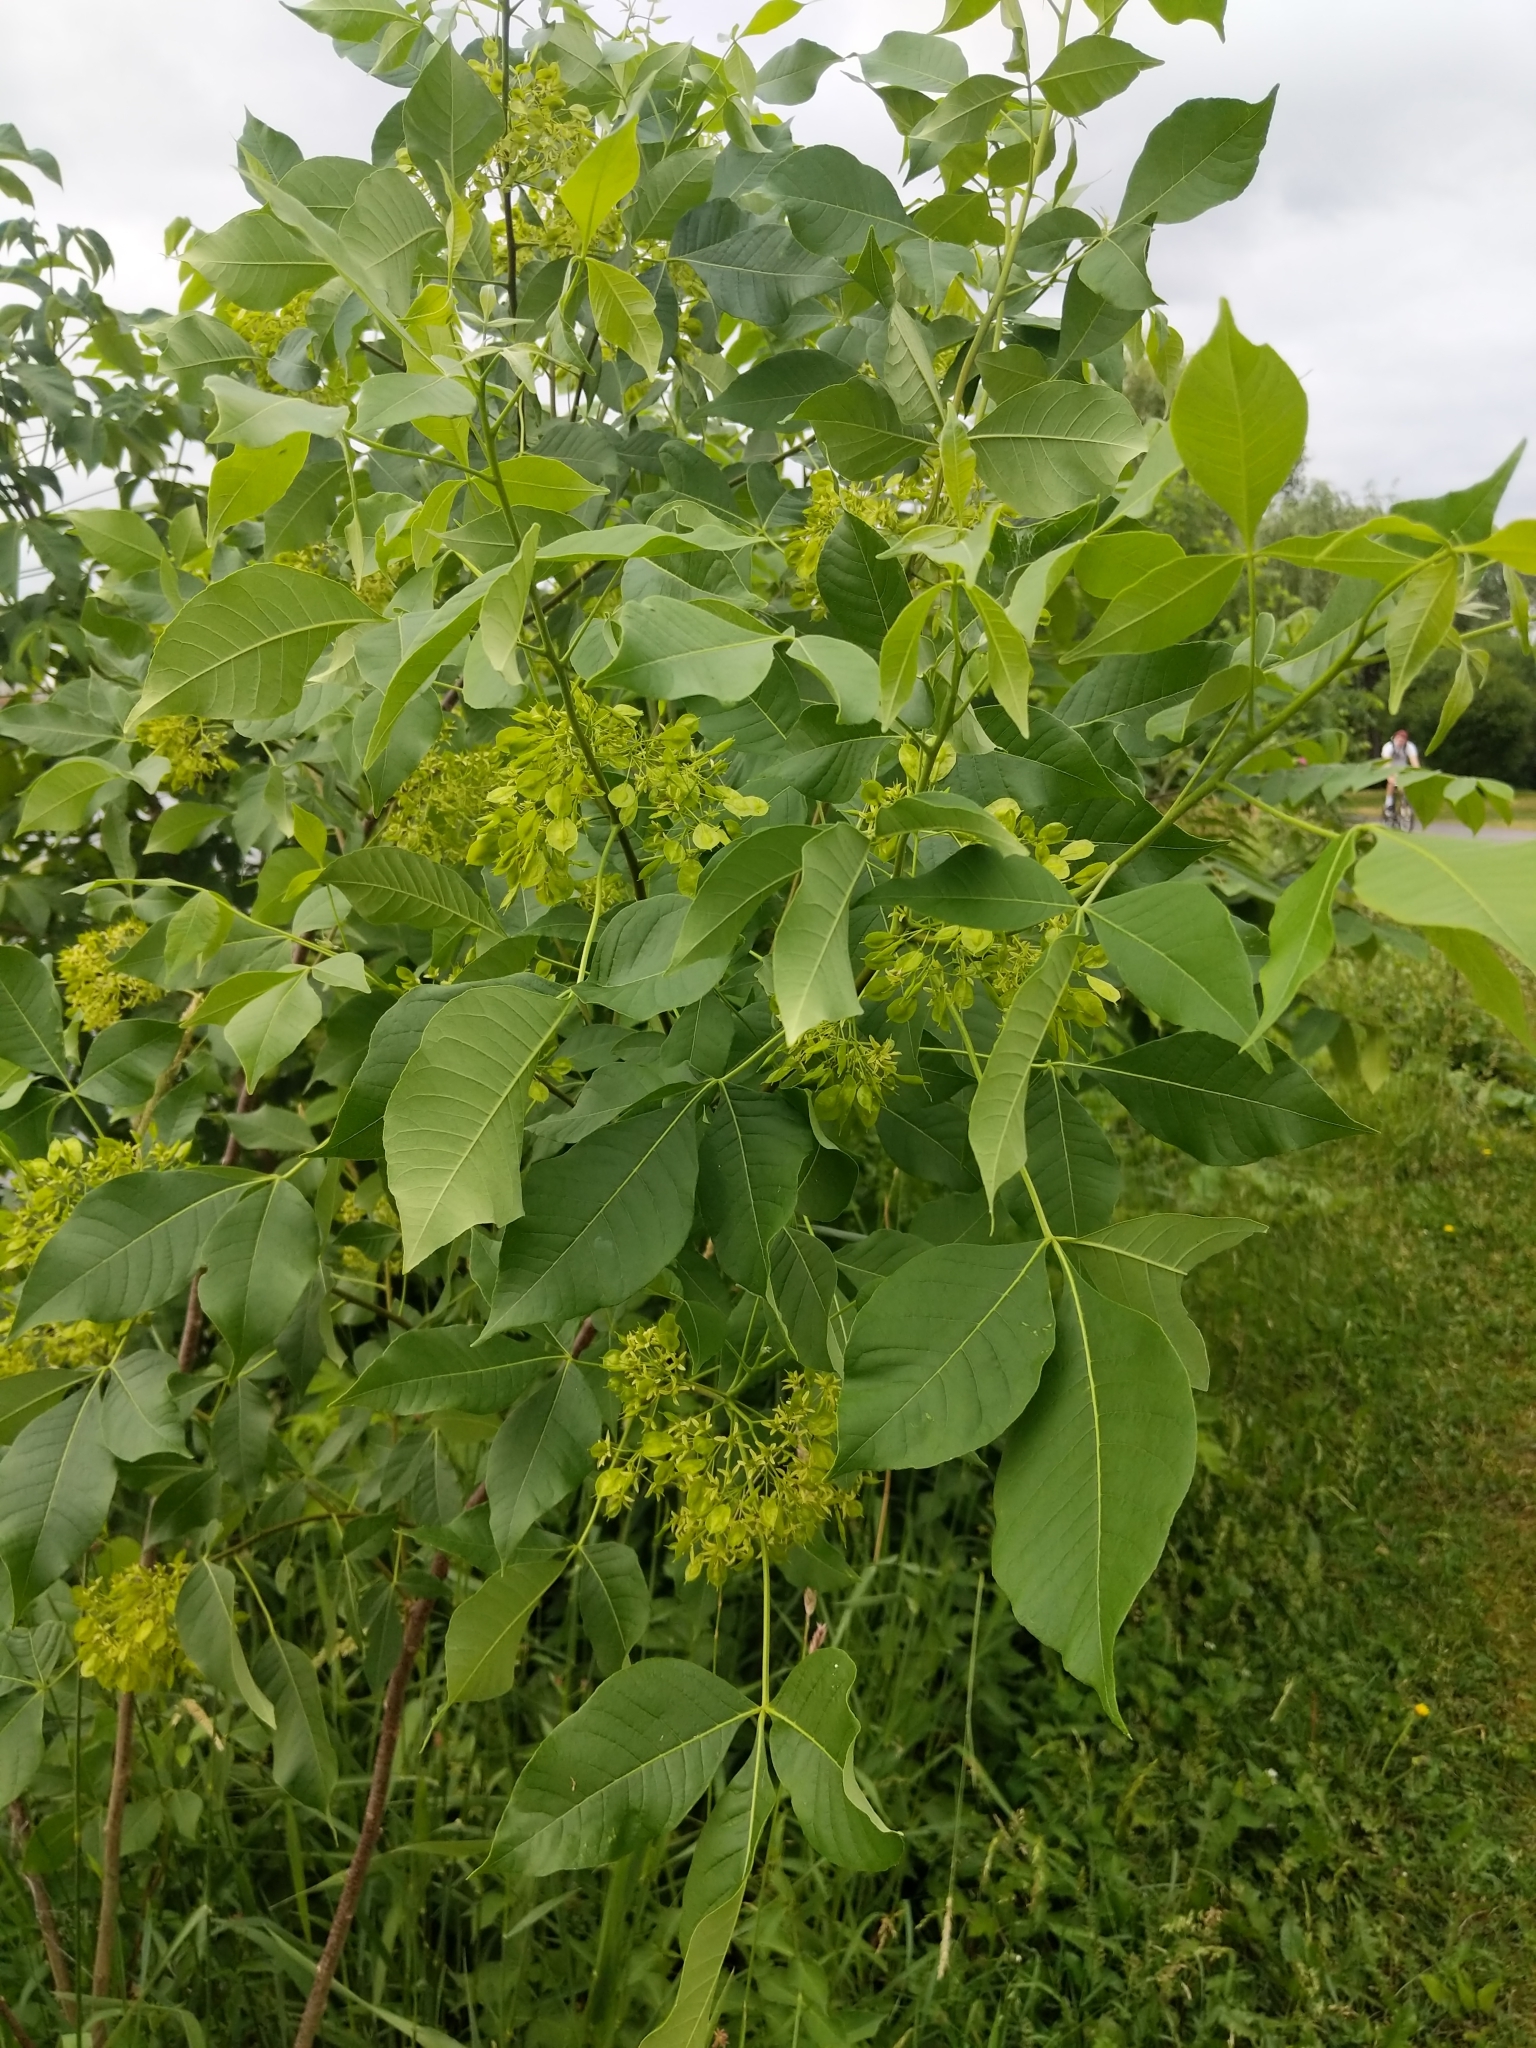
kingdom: Plantae
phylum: Tracheophyta
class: Magnoliopsida
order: Sapindales
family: Rutaceae
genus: Ptelea
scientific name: Ptelea trifoliata
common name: Common hop-tree
